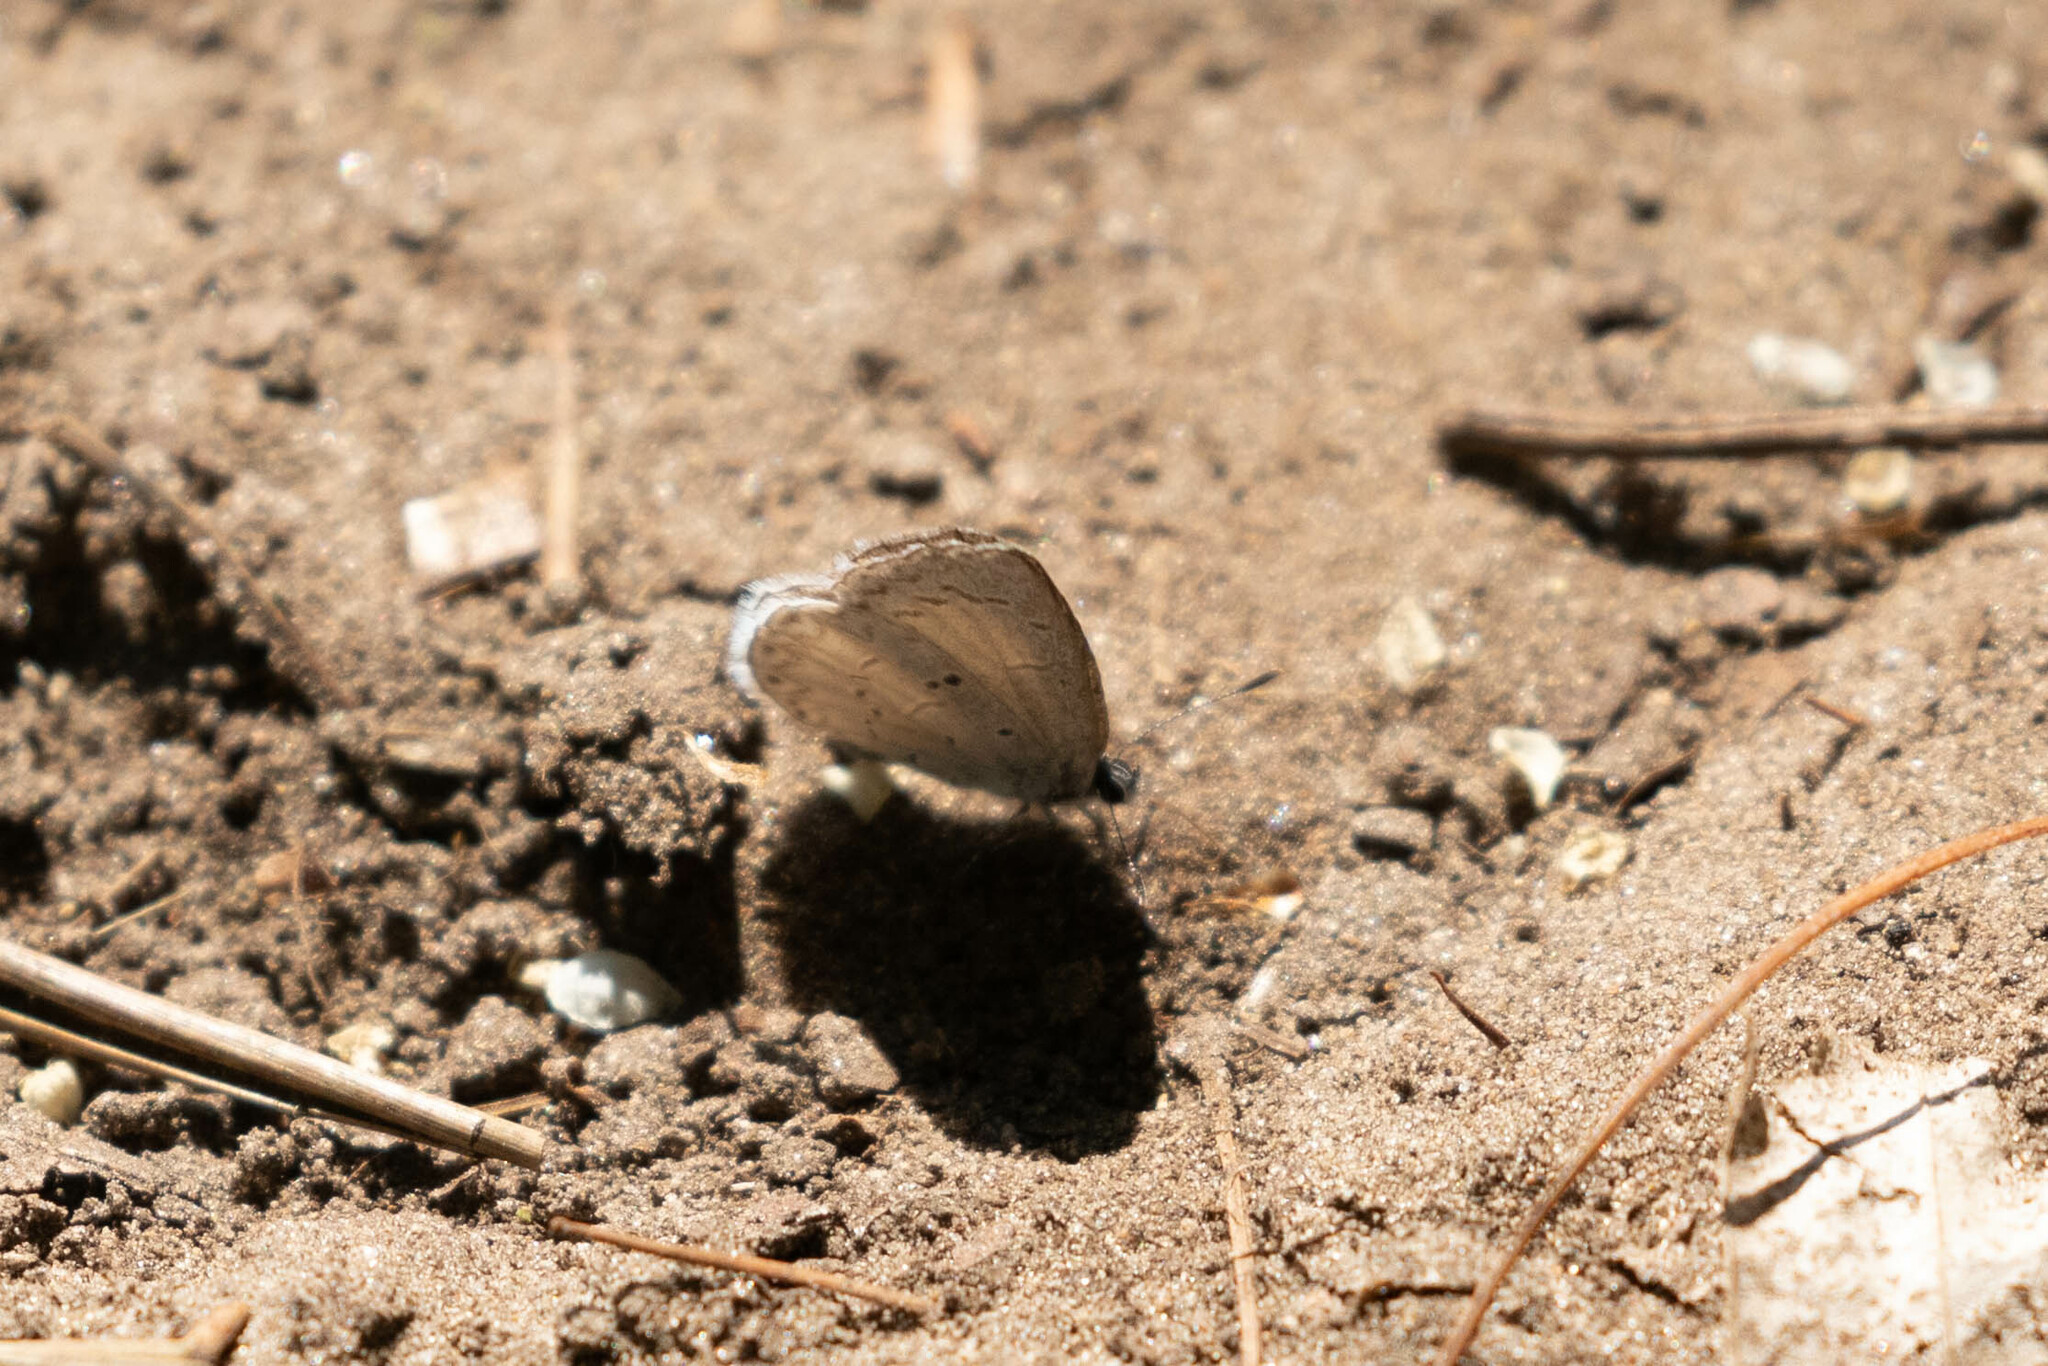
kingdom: Animalia
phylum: Arthropoda
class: Insecta
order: Lepidoptera
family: Lycaenidae
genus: Celastrina
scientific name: Celastrina lucia
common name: Lucia azure
